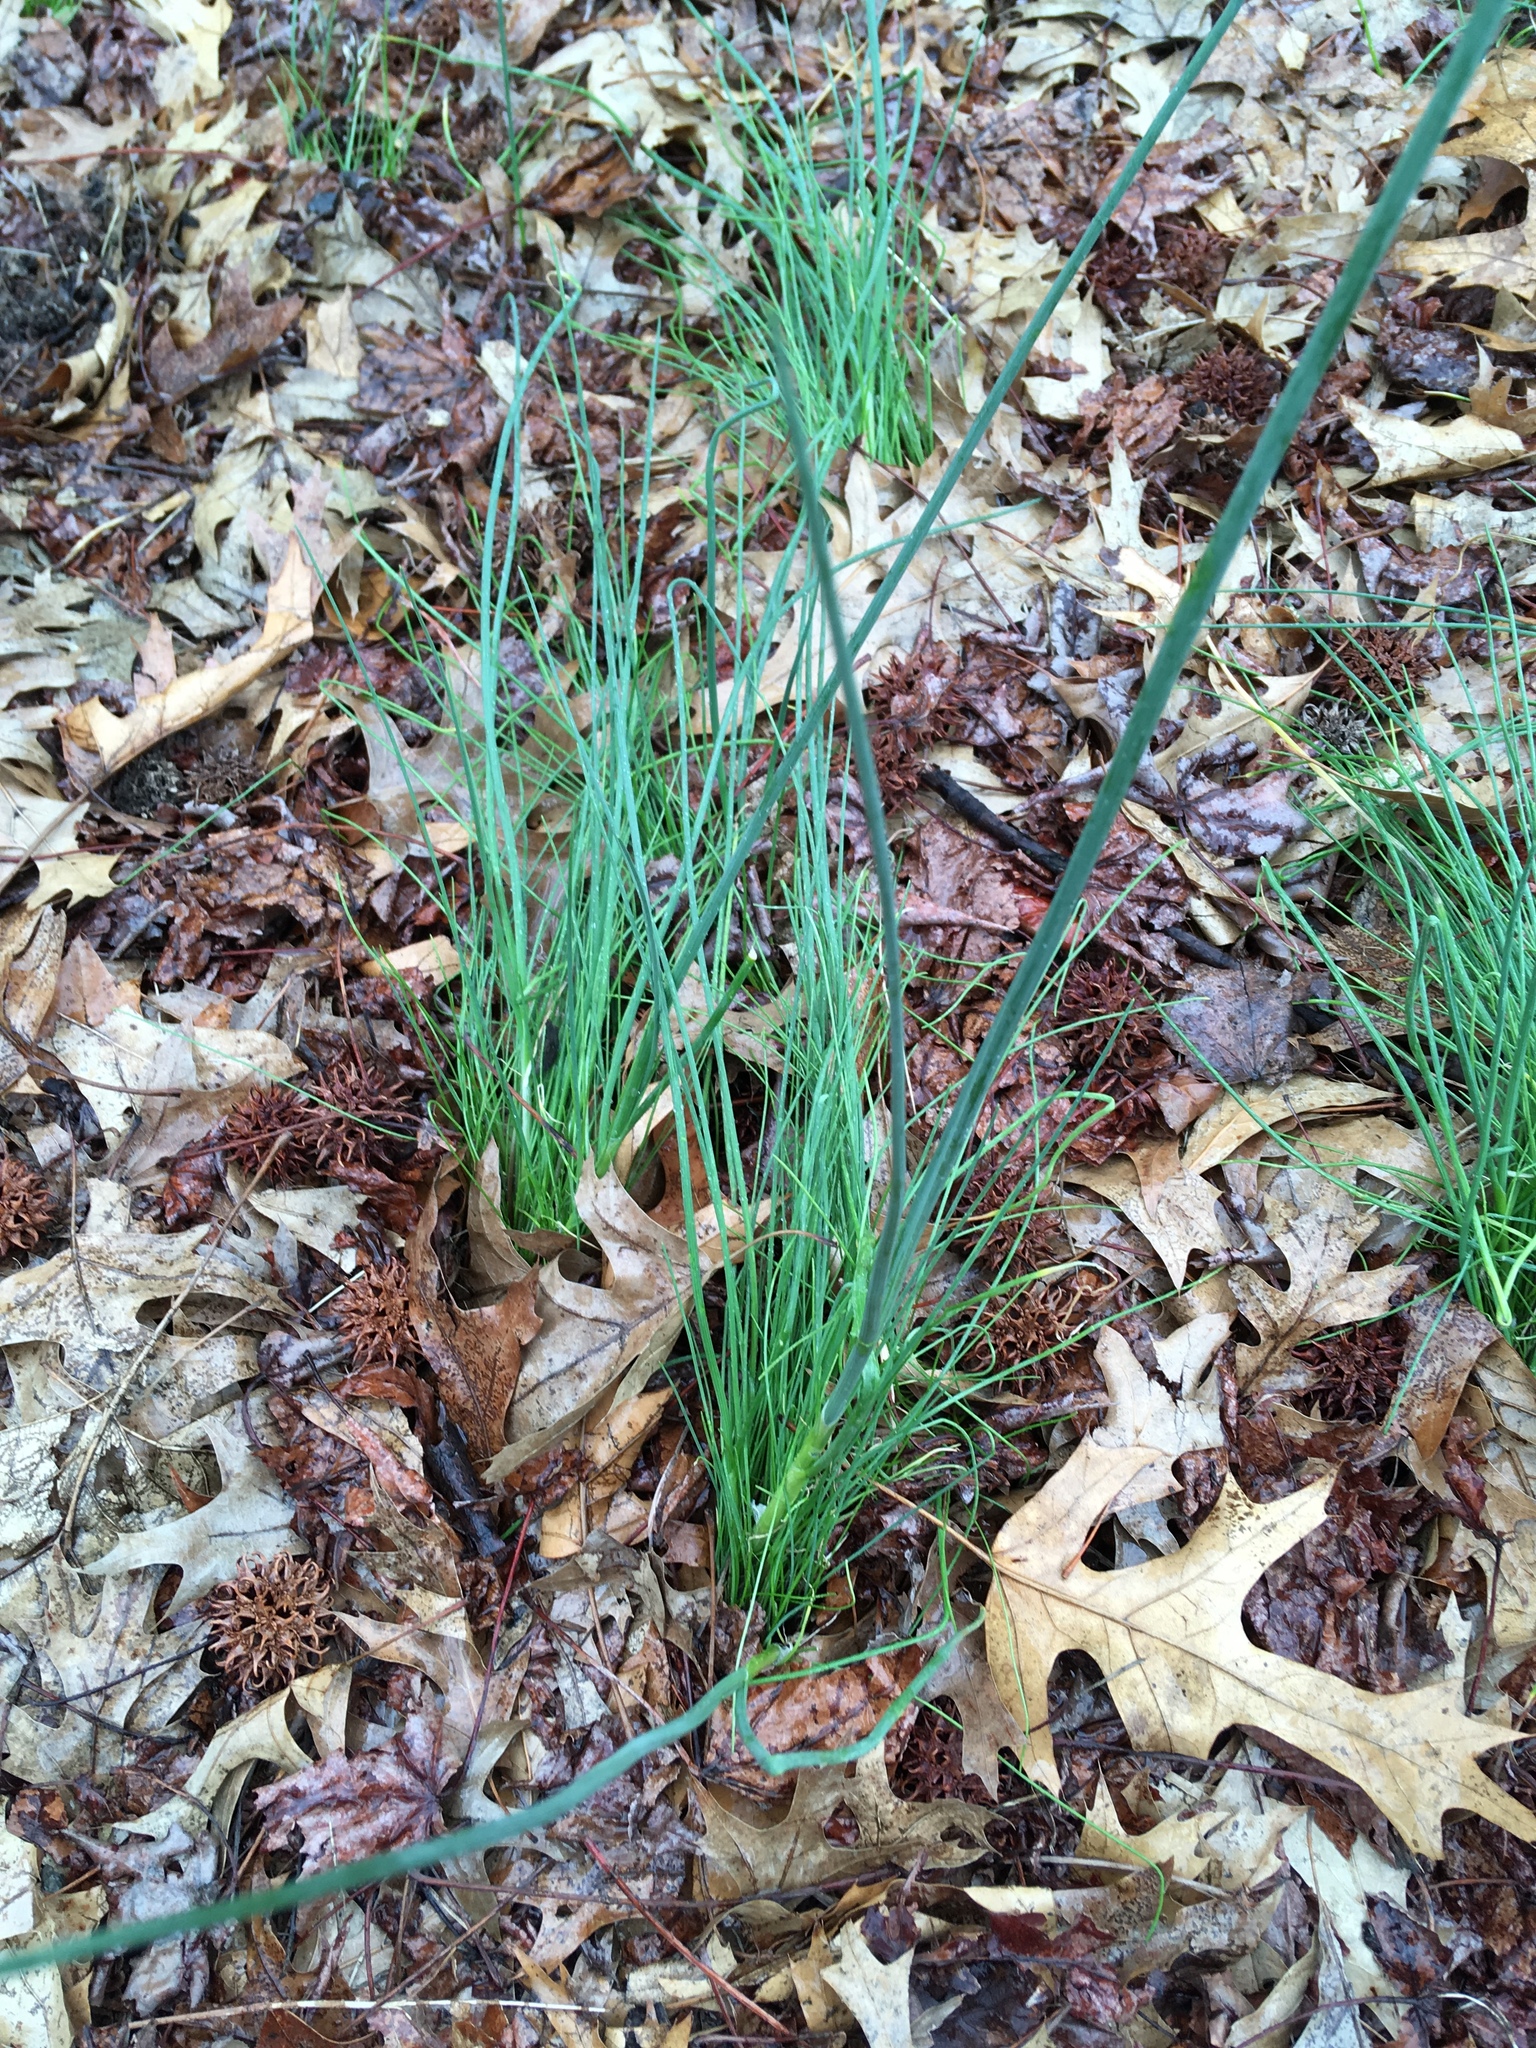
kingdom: Plantae
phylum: Tracheophyta
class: Liliopsida
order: Asparagales
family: Amaryllidaceae
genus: Allium
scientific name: Allium vineale
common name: Crow garlic
